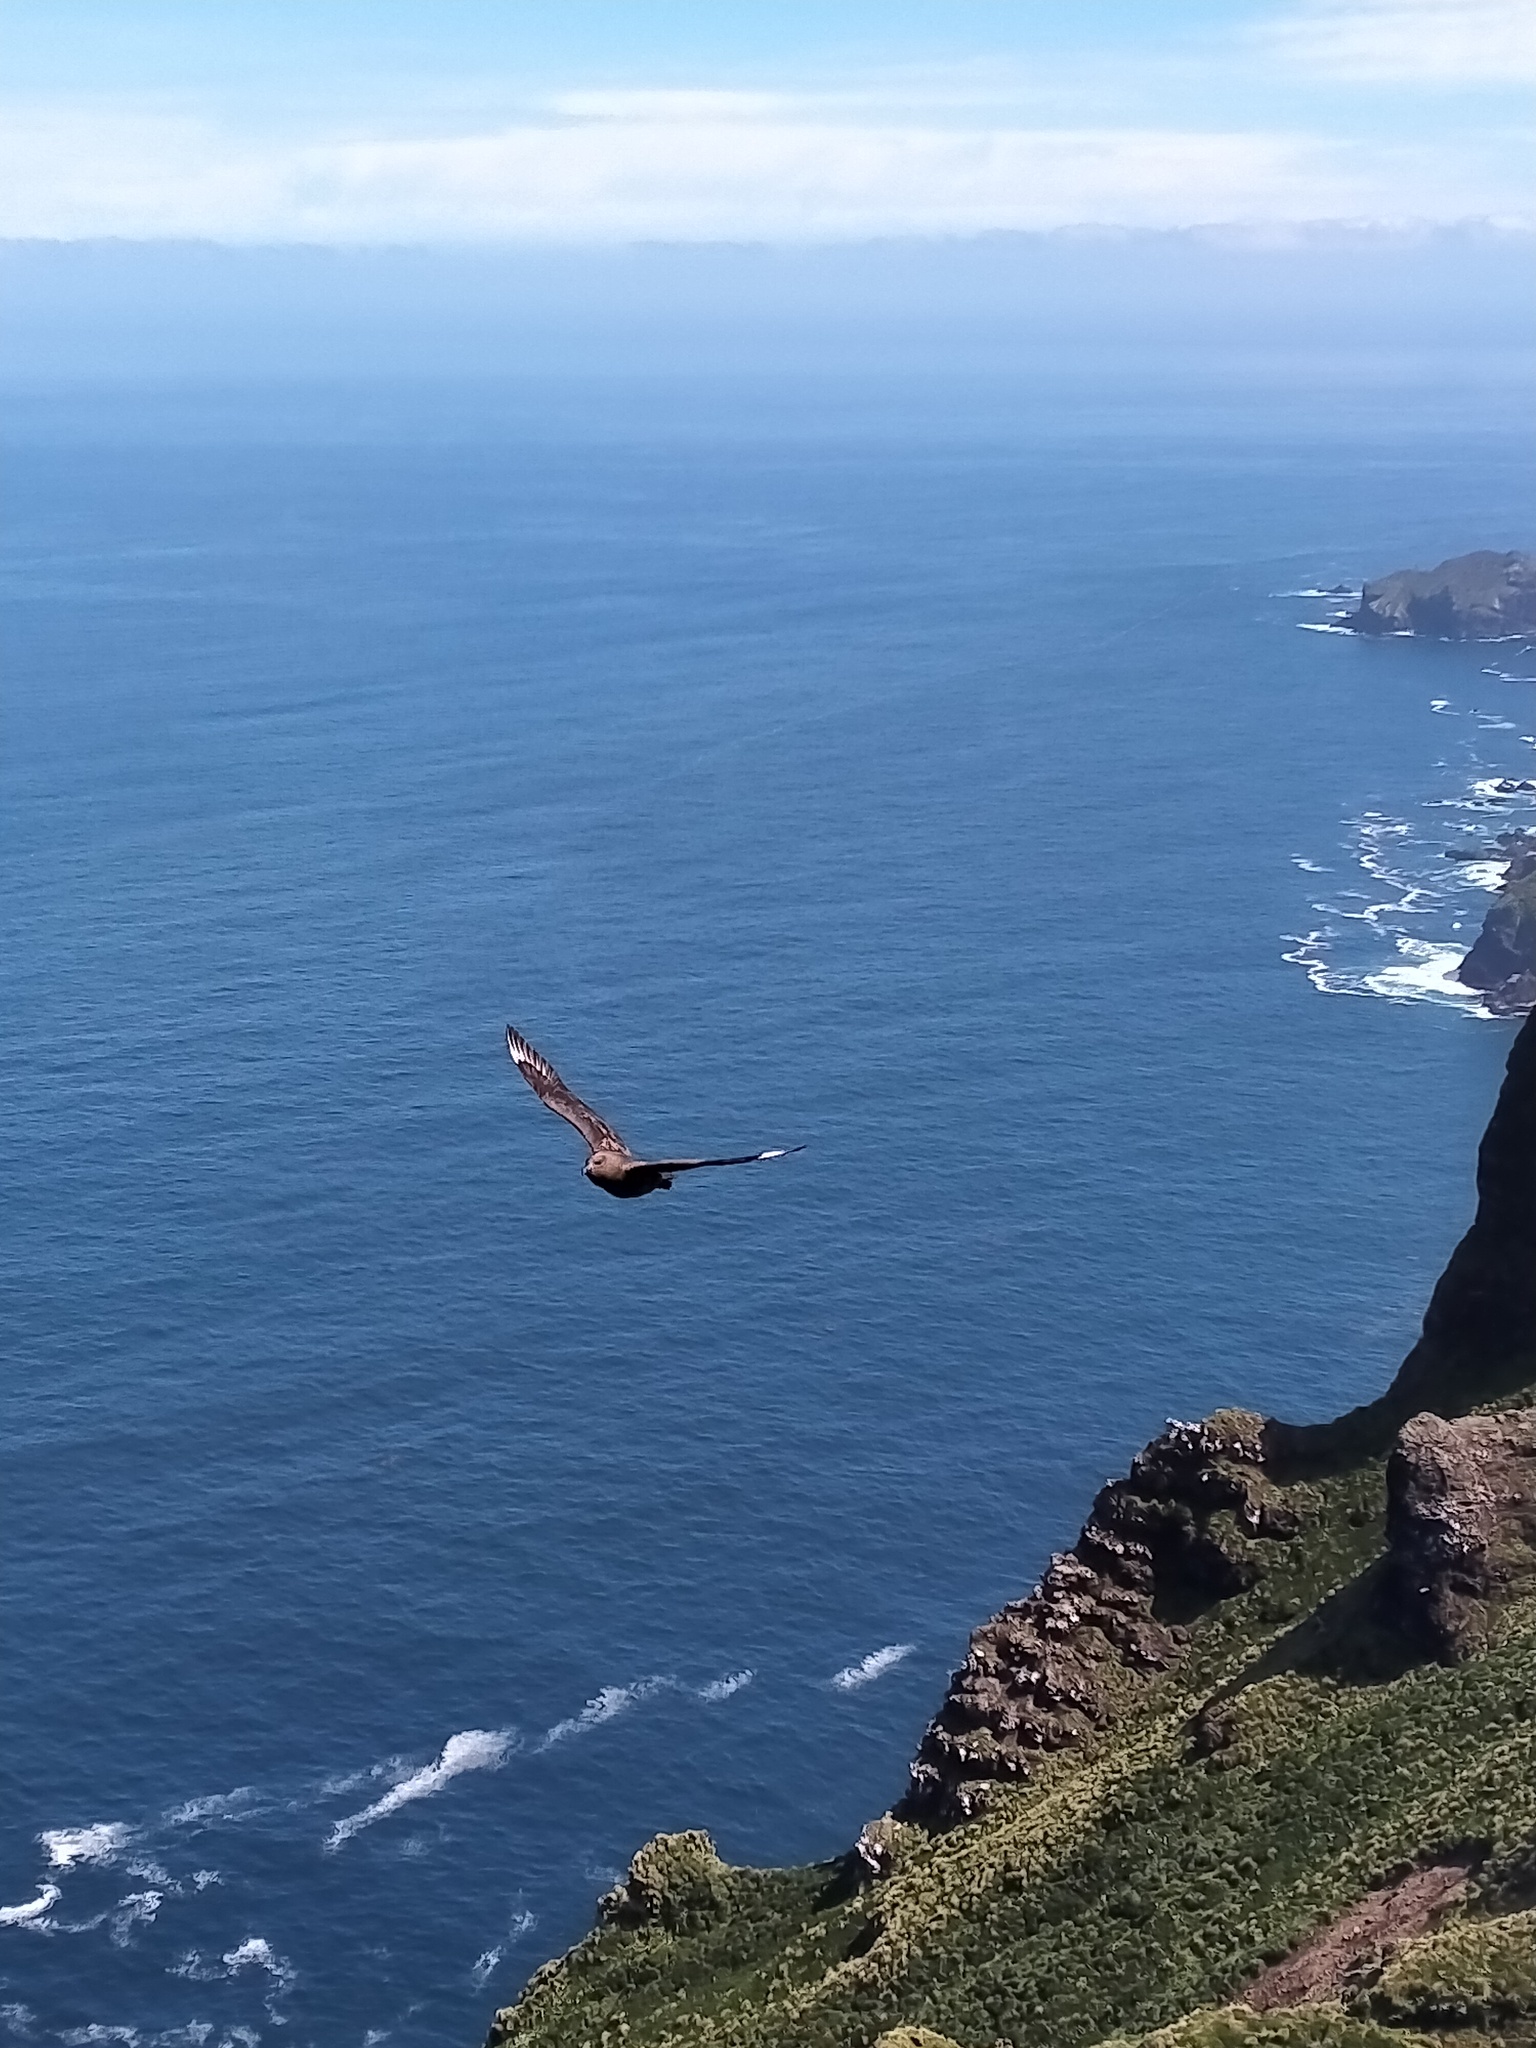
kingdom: Animalia
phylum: Chordata
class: Aves
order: Charadriiformes
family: Stercorariidae
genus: Stercorarius
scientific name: Stercorarius antarcticus
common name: Brown skua
